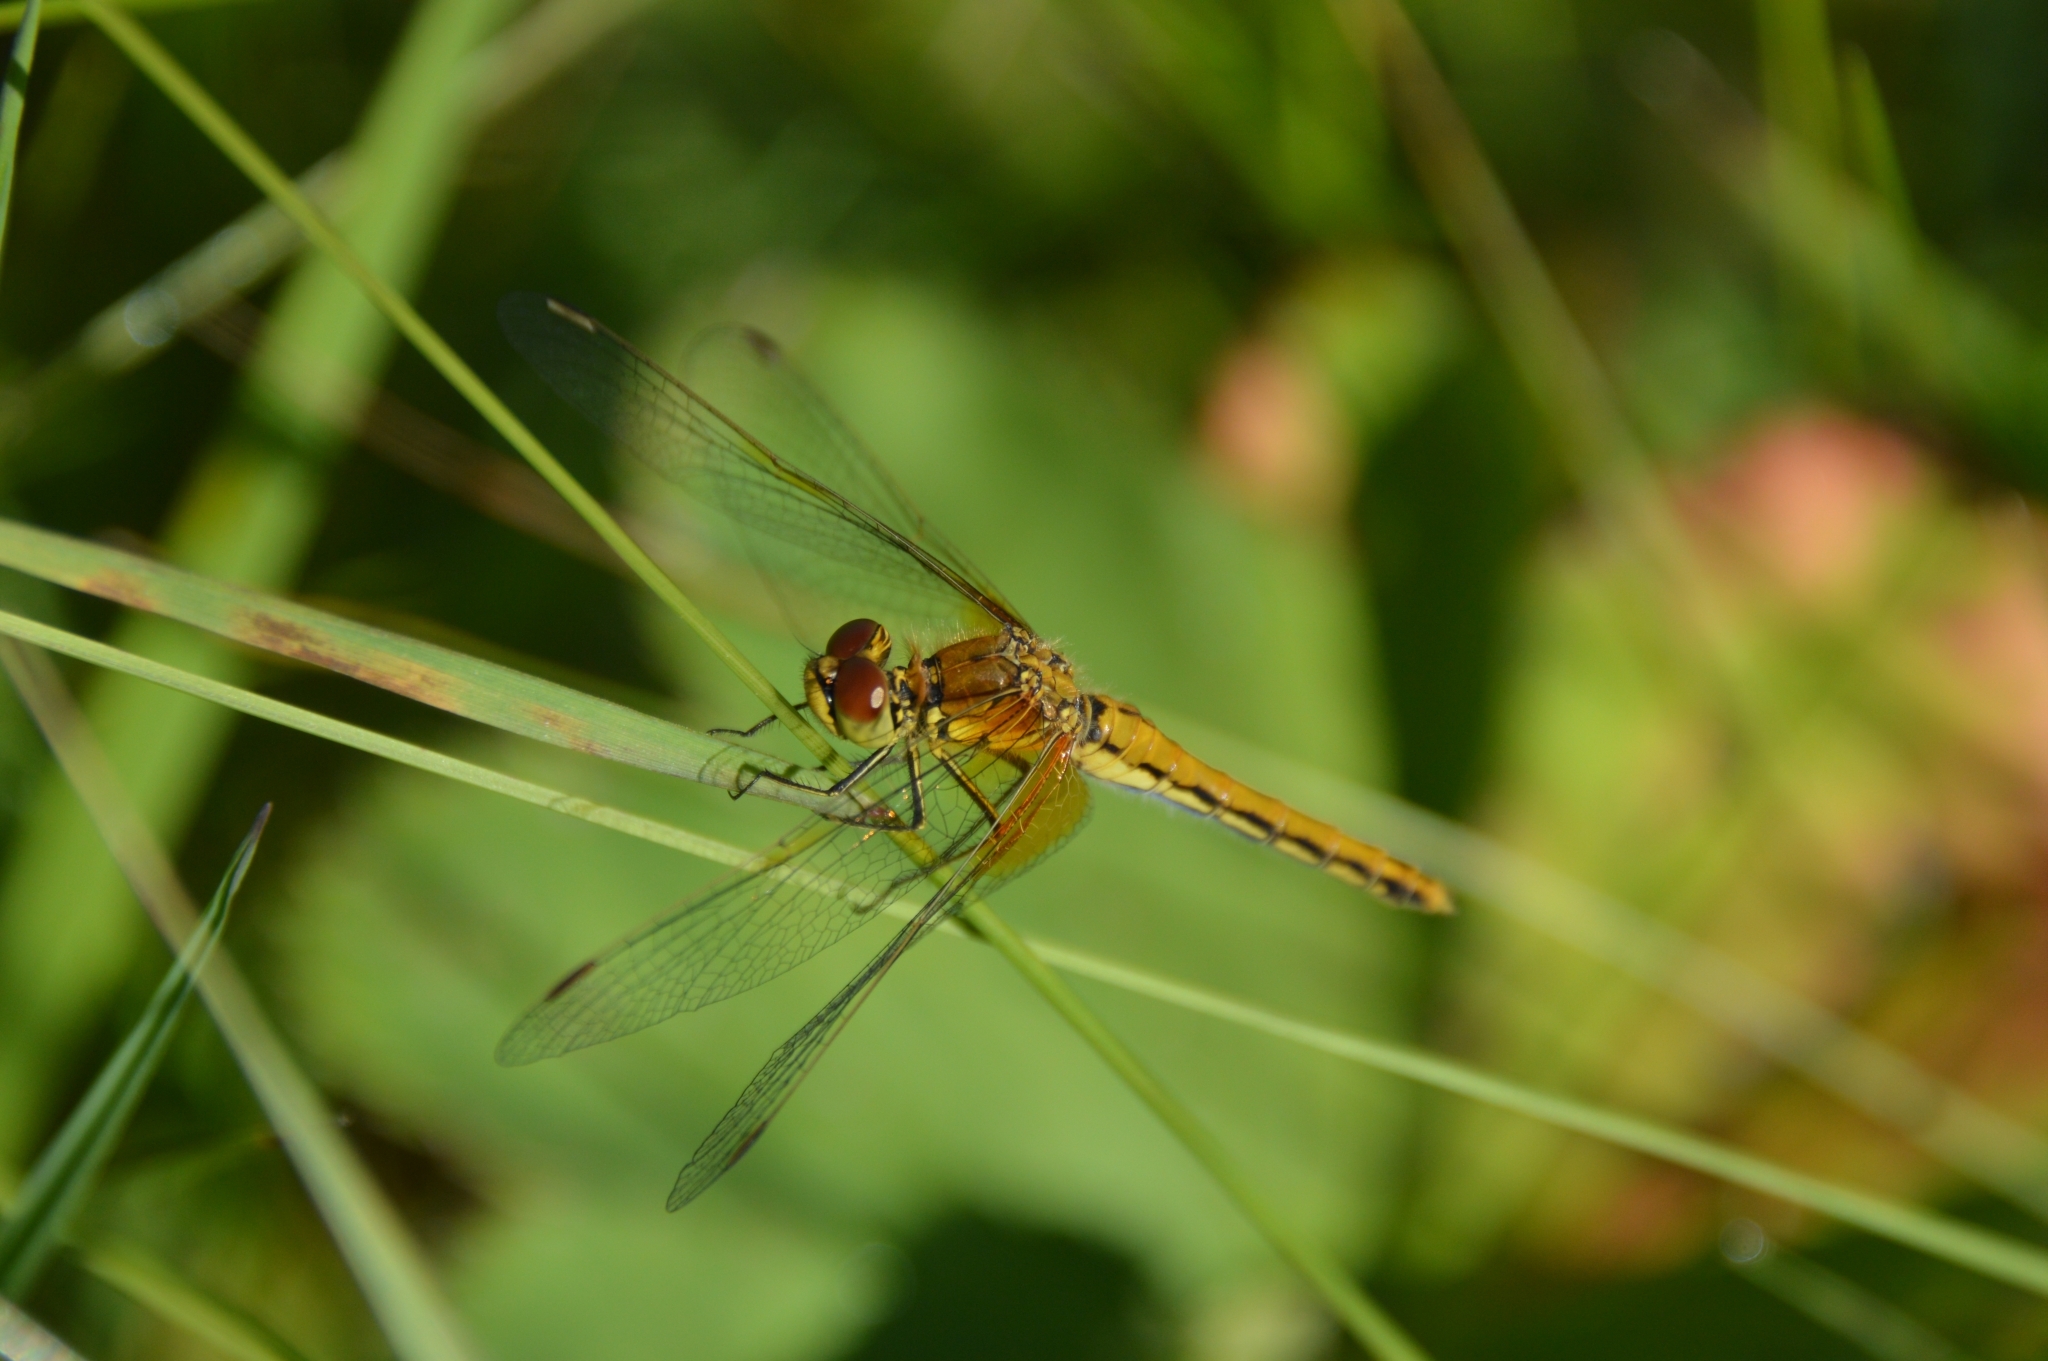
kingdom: Animalia
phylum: Arthropoda
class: Insecta
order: Odonata
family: Libellulidae
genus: Sympetrum
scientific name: Sympetrum flaveolum
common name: Yellow-winged darter
